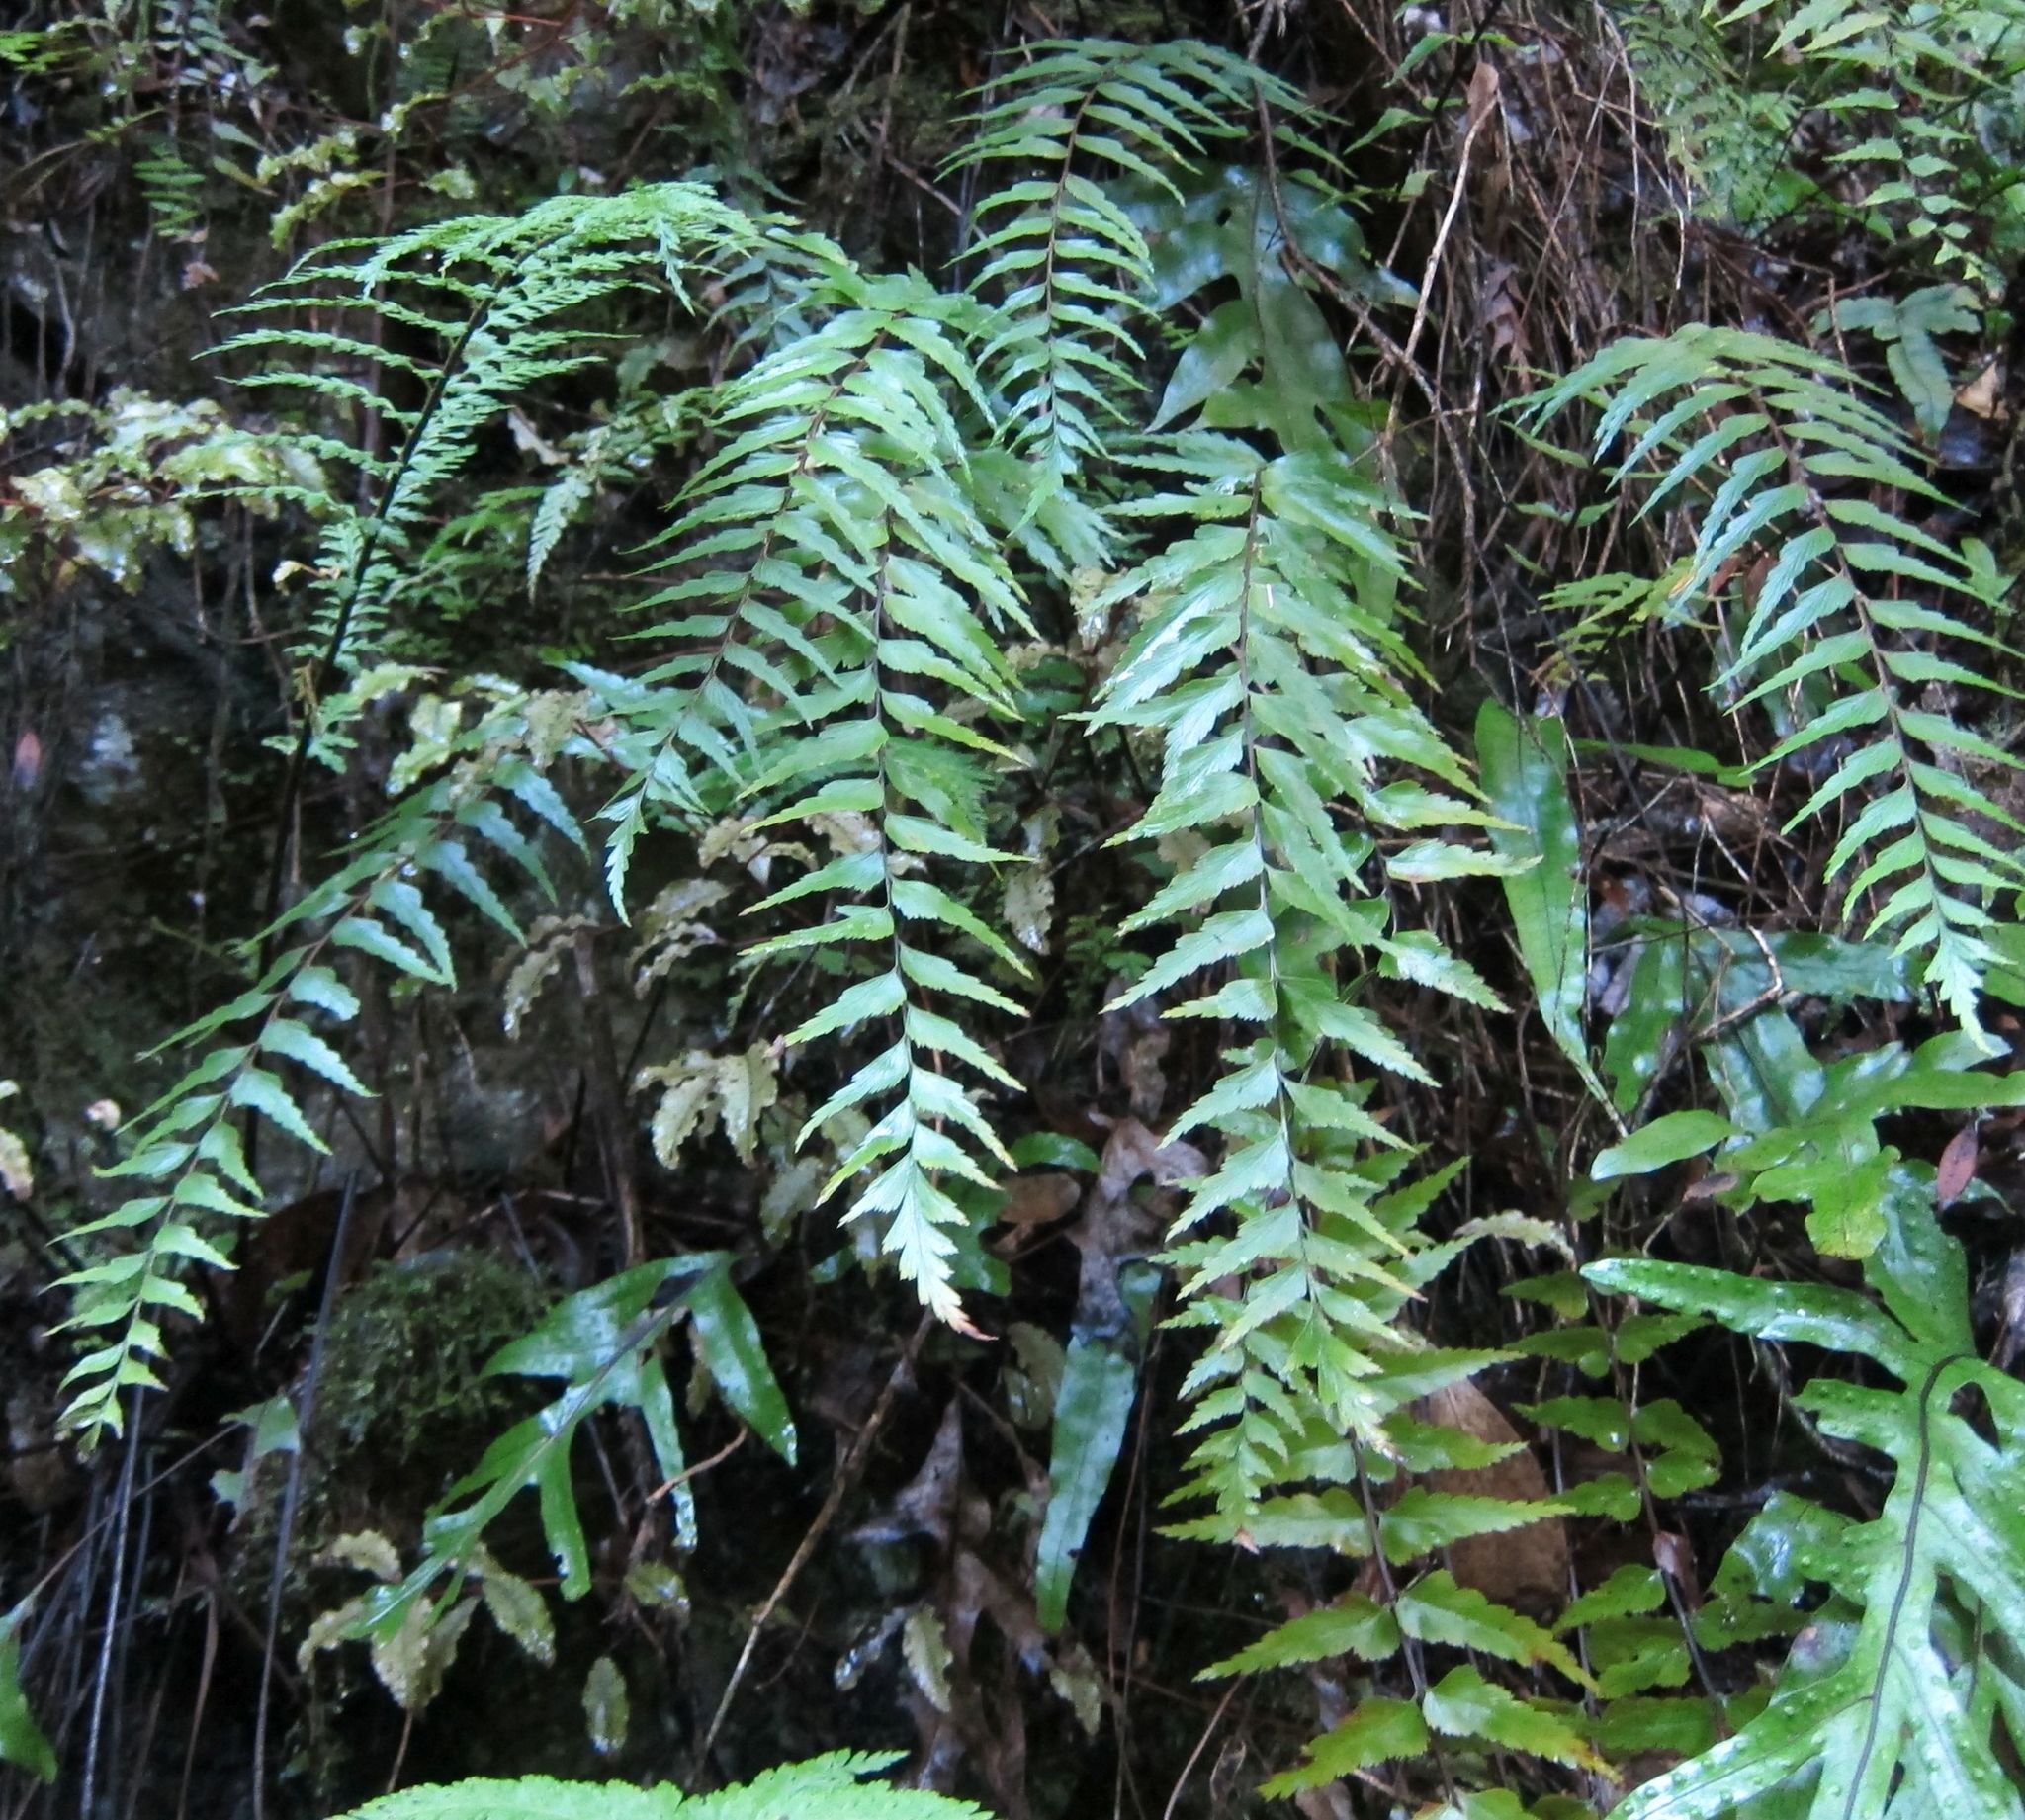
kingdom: Plantae
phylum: Tracheophyta
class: Polypodiopsida
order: Polypodiales
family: Aspleniaceae
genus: Asplenium
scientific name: Asplenium polyodon
